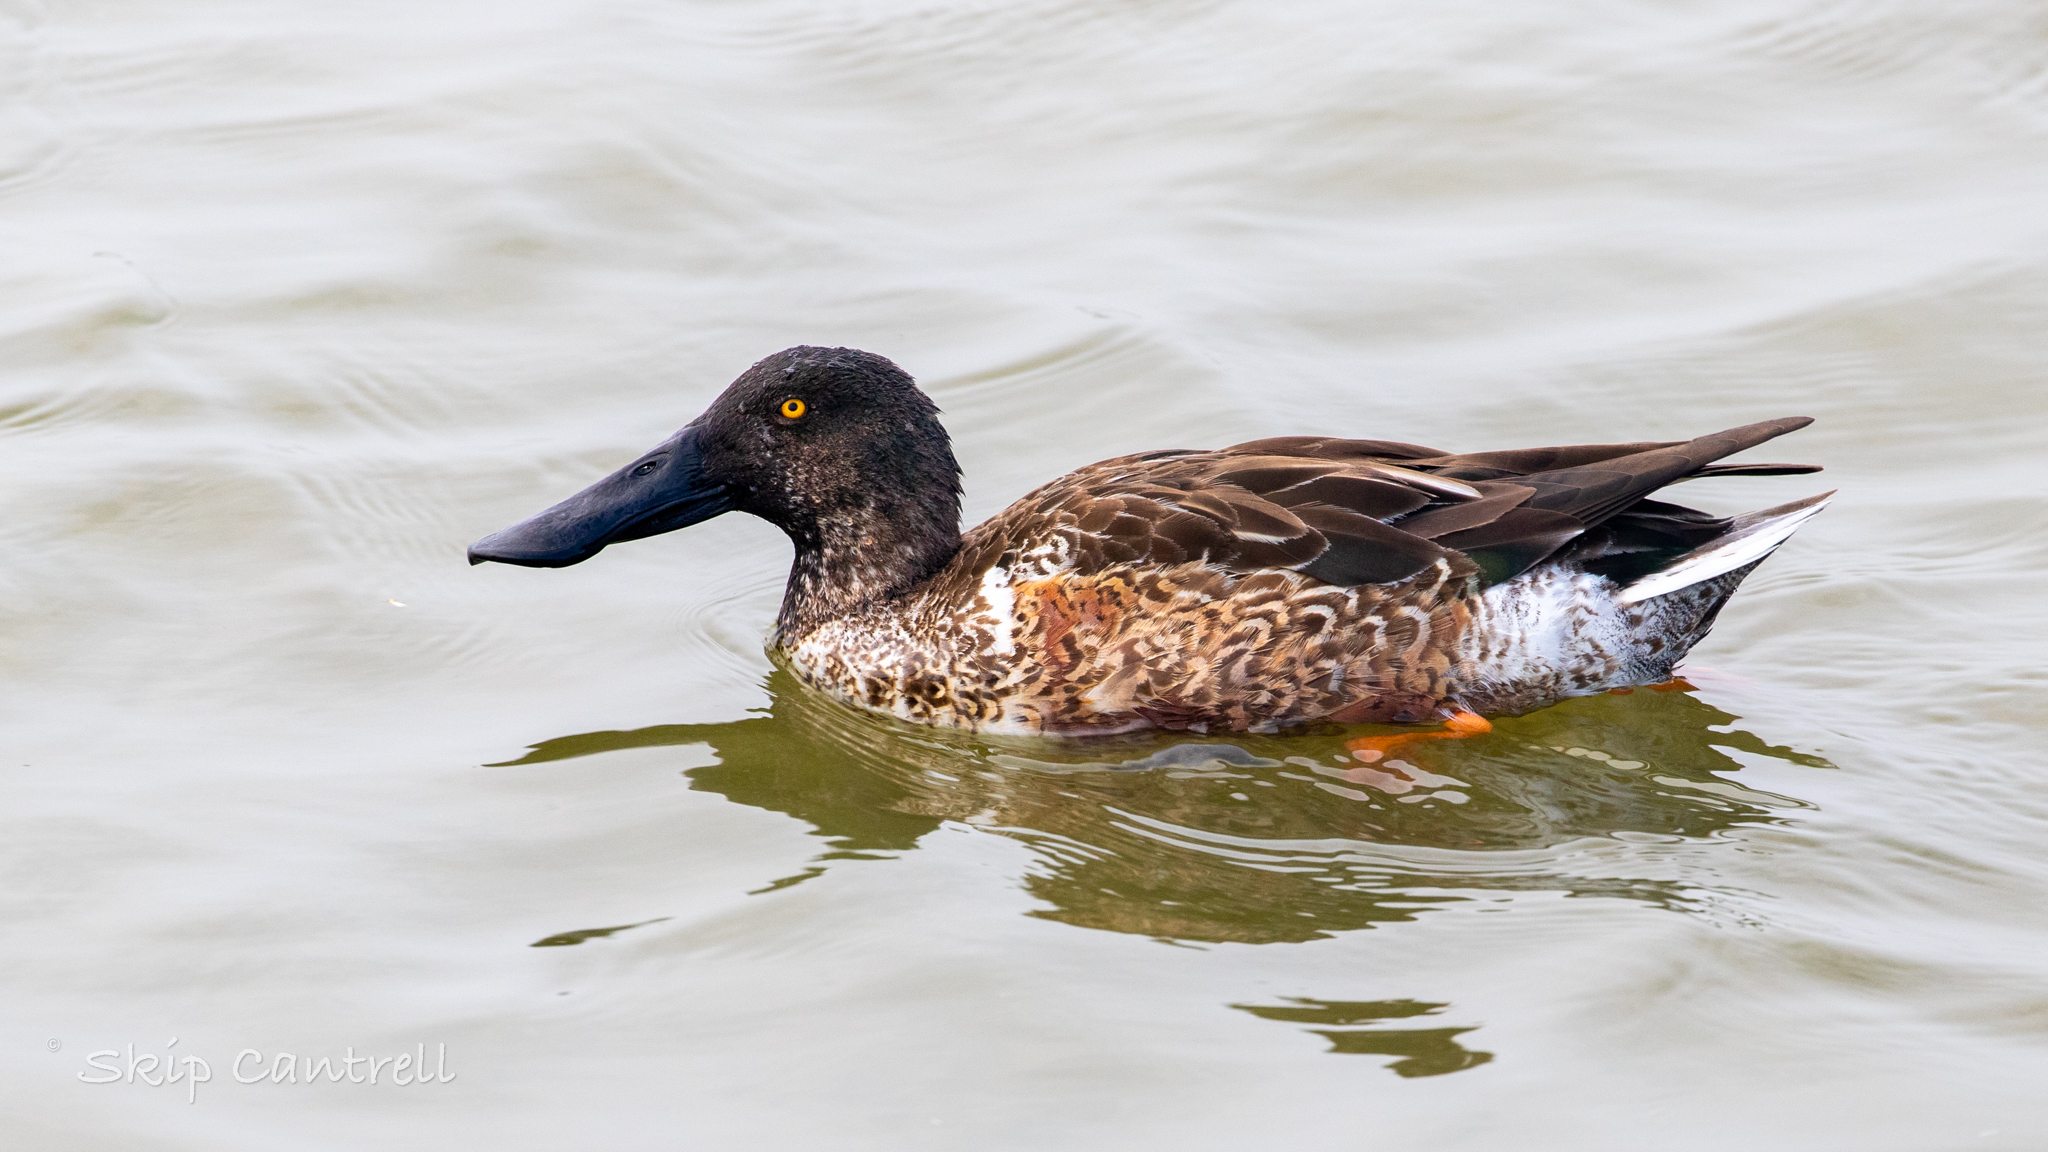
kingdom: Animalia
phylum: Chordata
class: Aves
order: Anseriformes
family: Anatidae
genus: Spatula
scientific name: Spatula clypeata
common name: Northern shoveler
